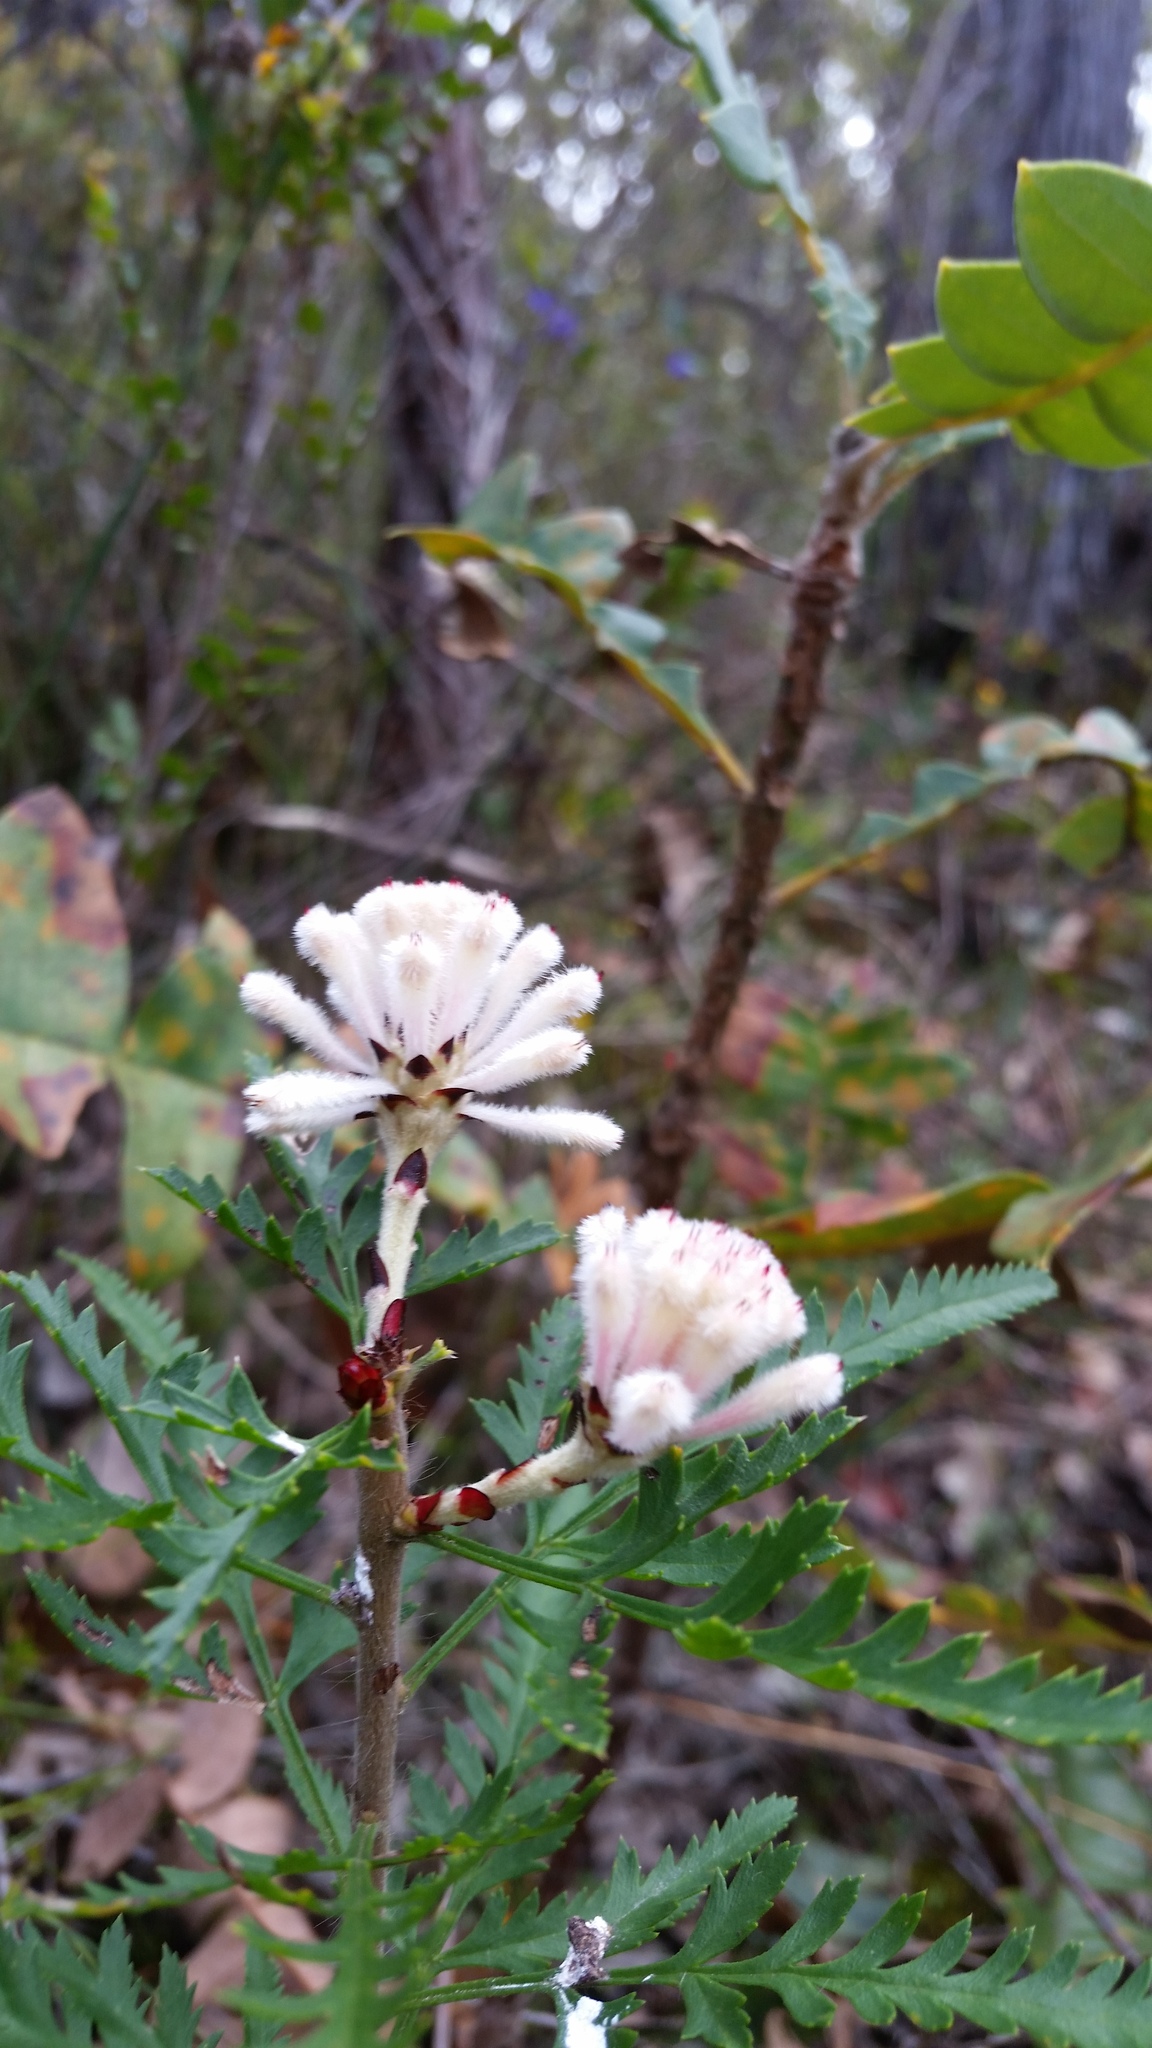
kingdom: Plantae
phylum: Tracheophyta
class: Magnoliopsida
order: Proteales
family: Proteaceae
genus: Petrophile
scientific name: Petrophile diversifolia
